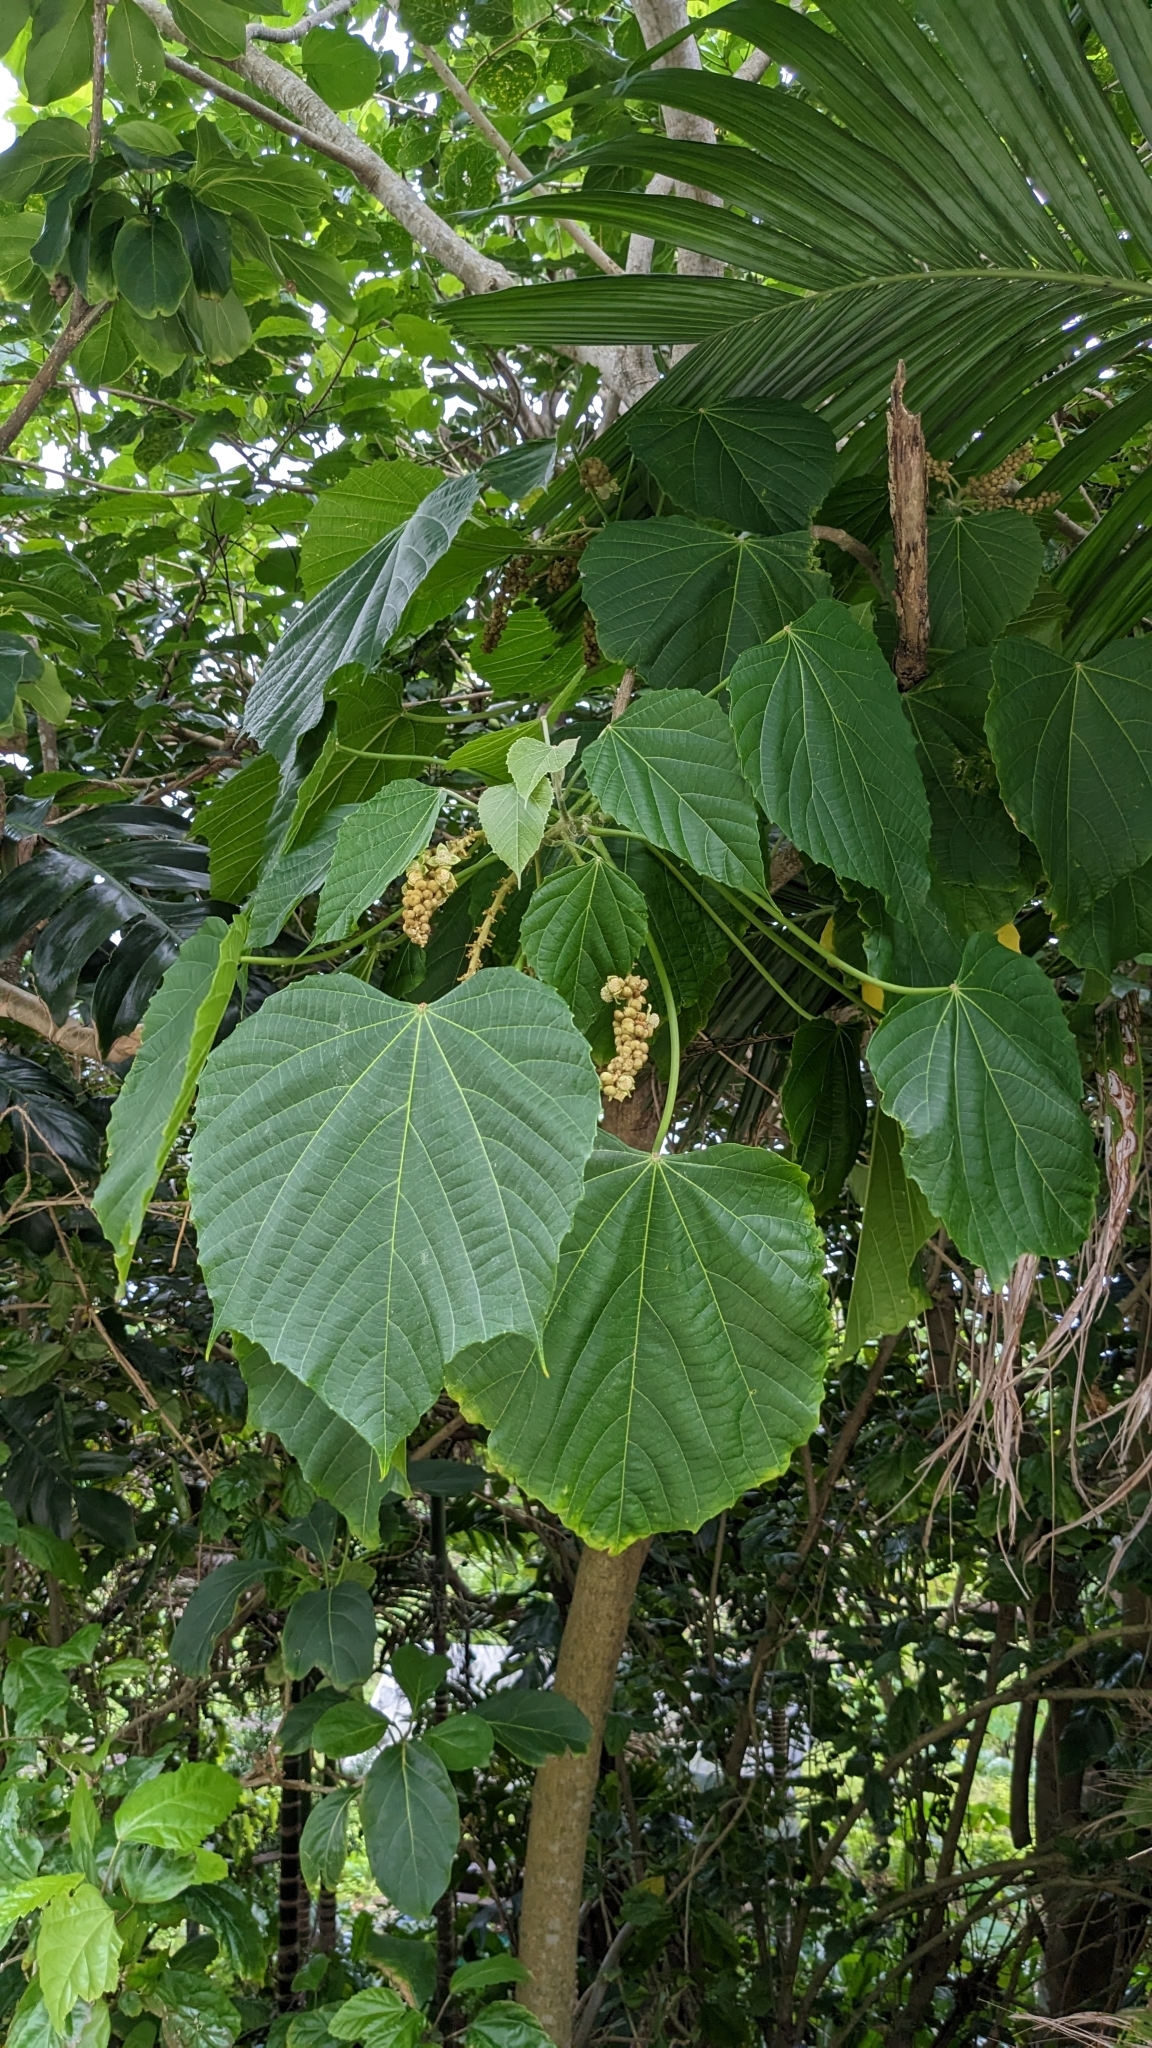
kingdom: Plantae
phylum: Tracheophyta
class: Magnoliopsida
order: Malpighiales
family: Euphorbiaceae
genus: Melanolepis
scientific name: Melanolepis multiglandulosa
